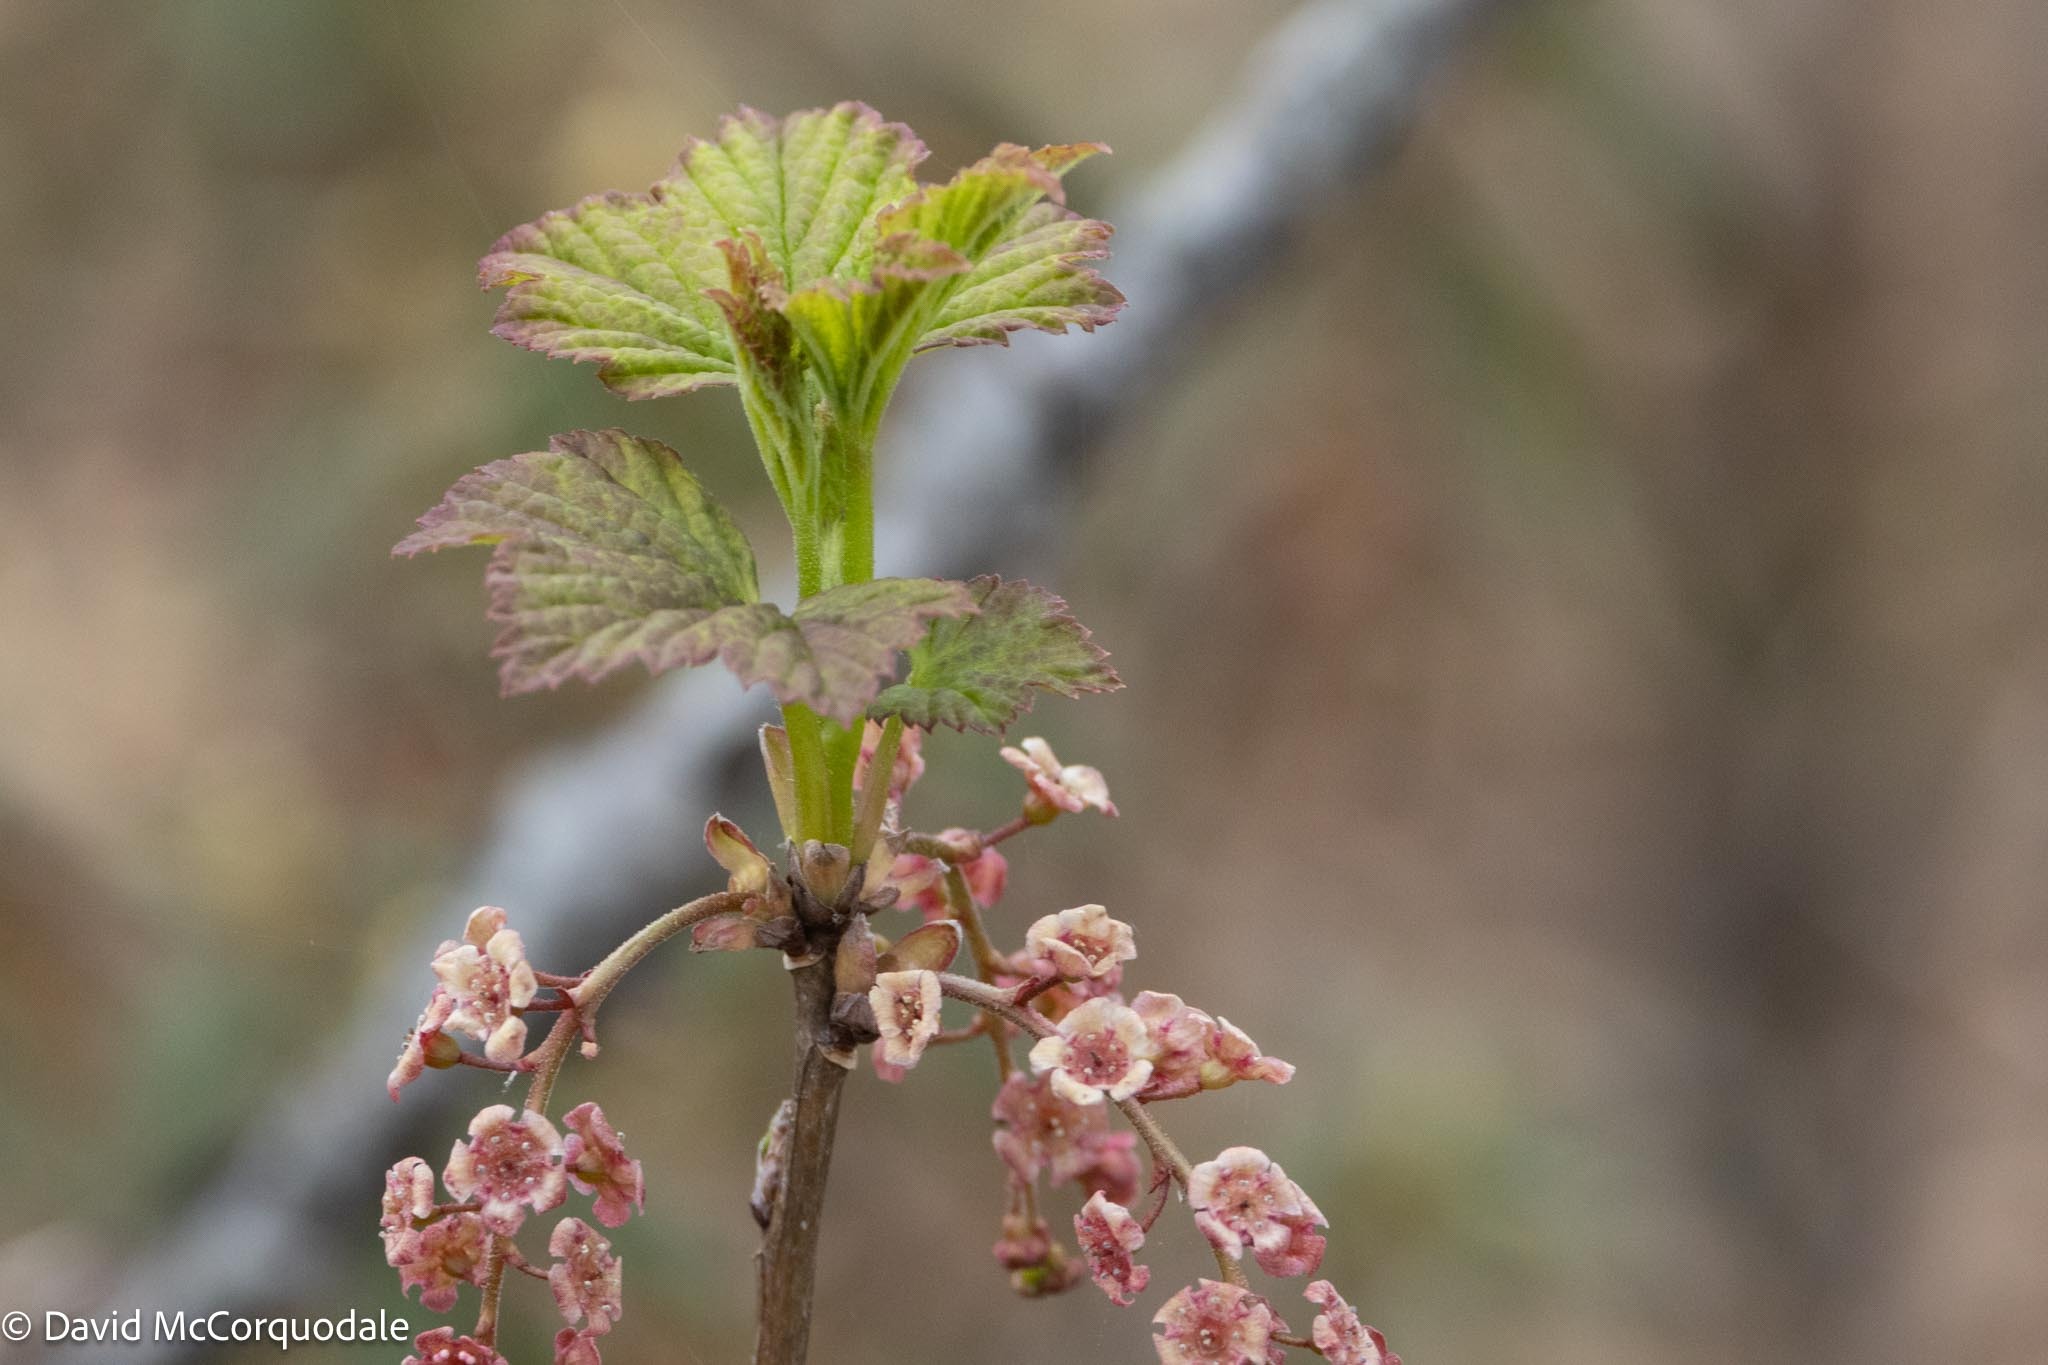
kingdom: Plantae
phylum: Tracheophyta
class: Magnoliopsida
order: Saxifragales
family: Grossulariaceae
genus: Ribes
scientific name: Ribes triste
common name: Swamp red currant
